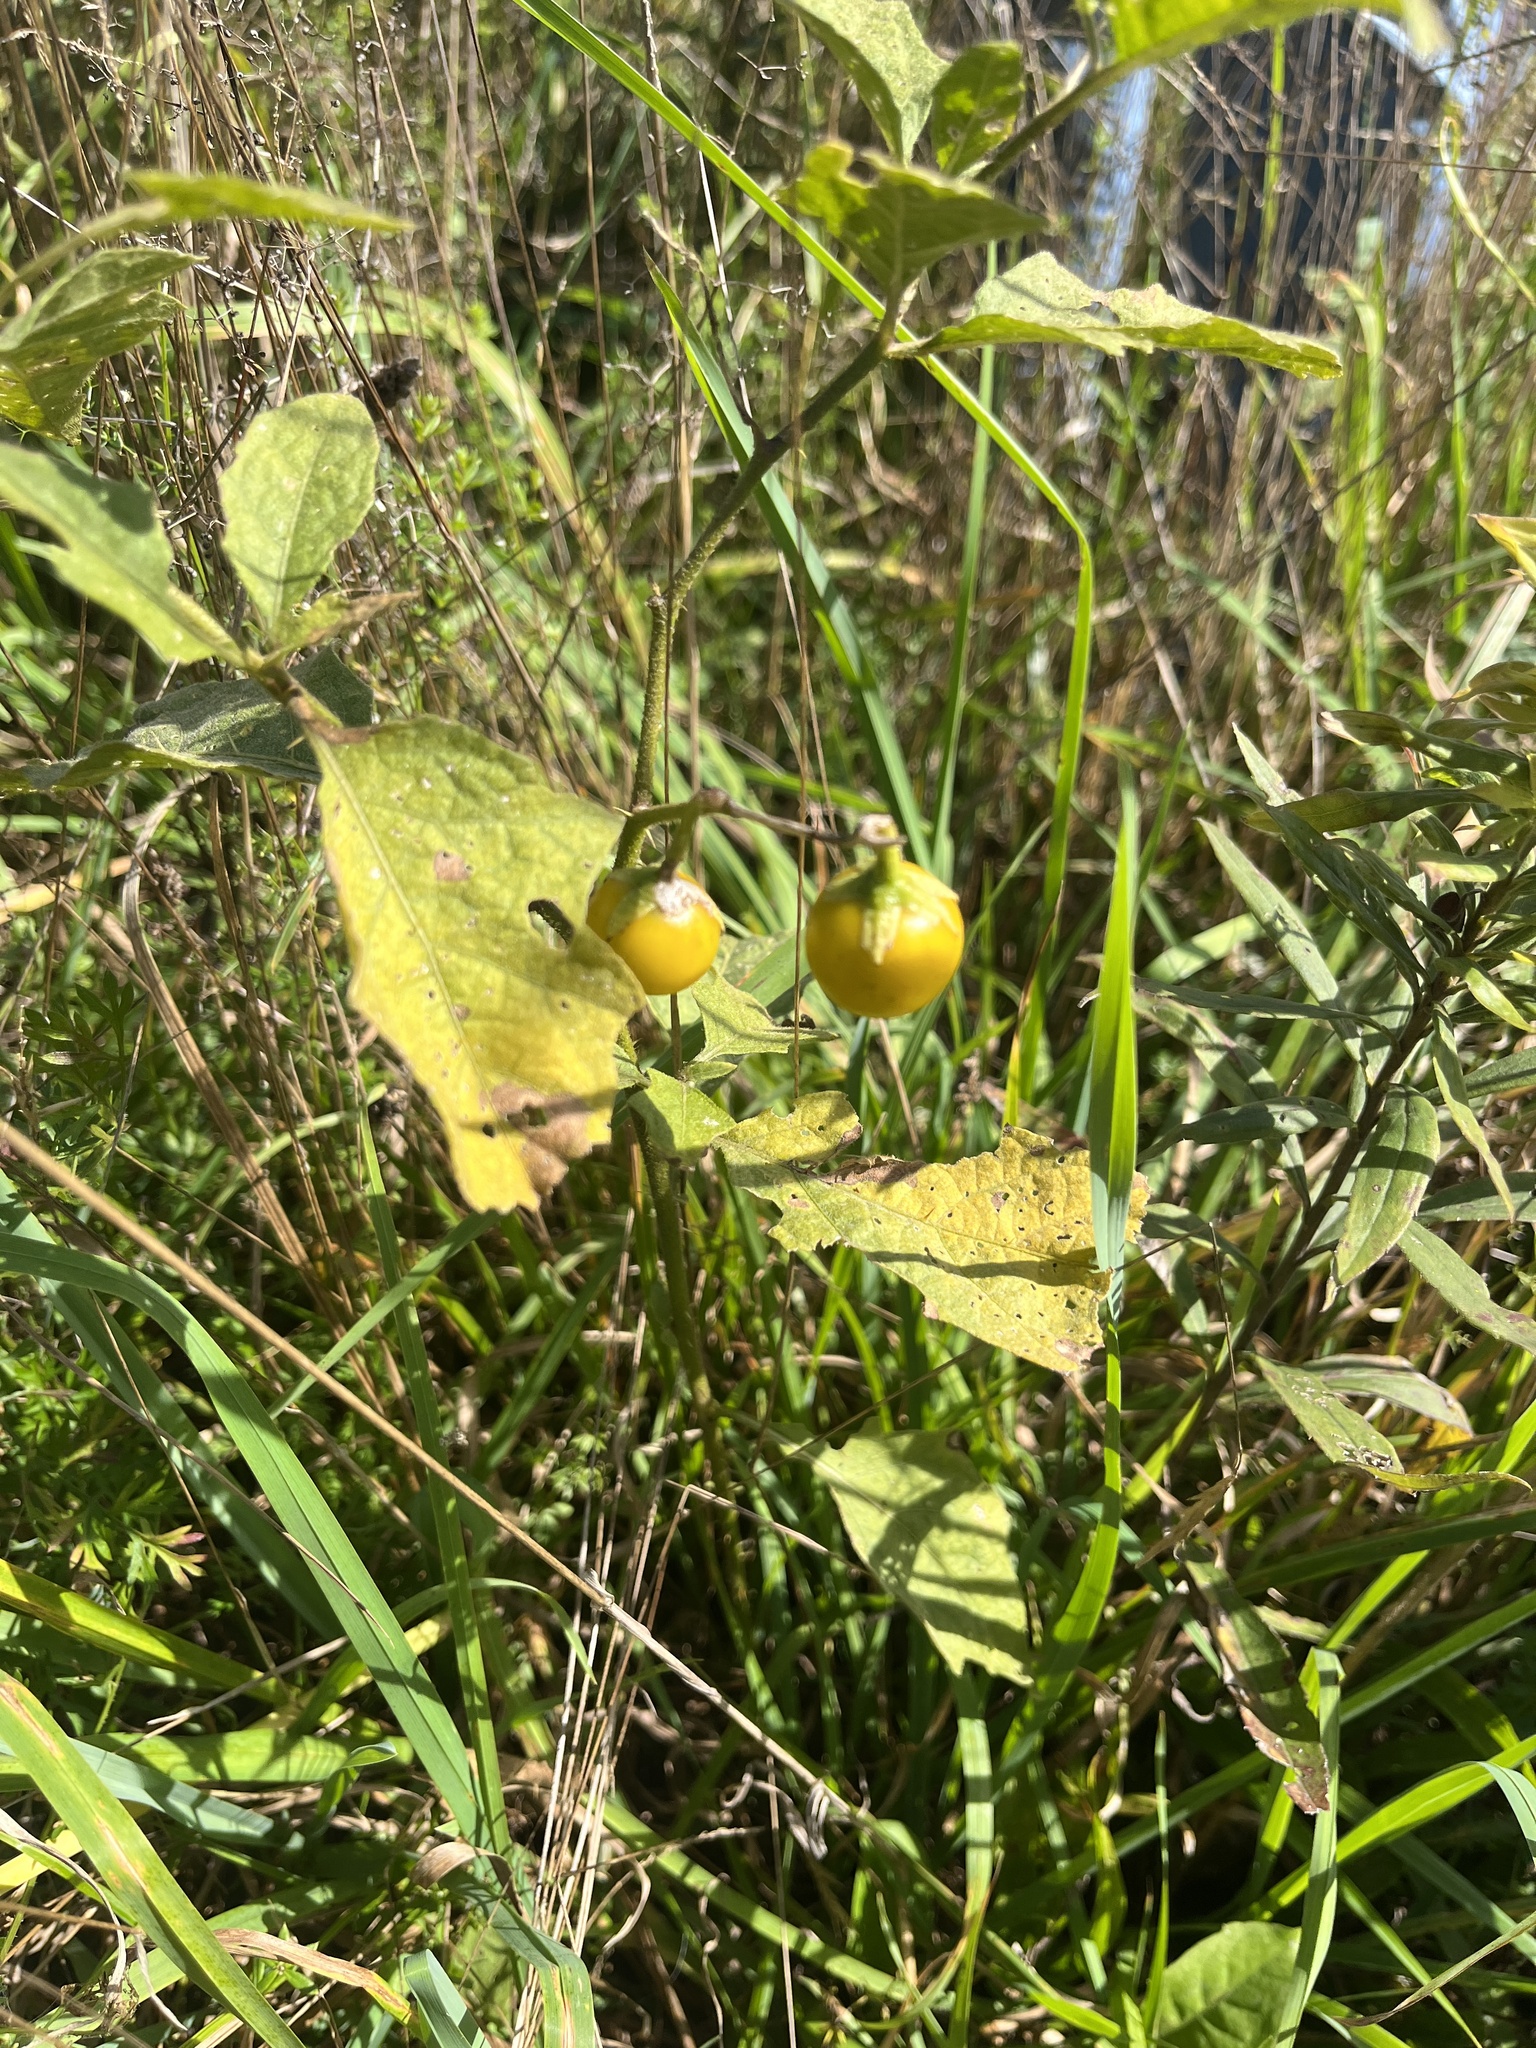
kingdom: Plantae
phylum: Tracheophyta
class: Magnoliopsida
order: Solanales
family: Solanaceae
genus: Solanum
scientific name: Solanum carolinense
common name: Horse-nettle
